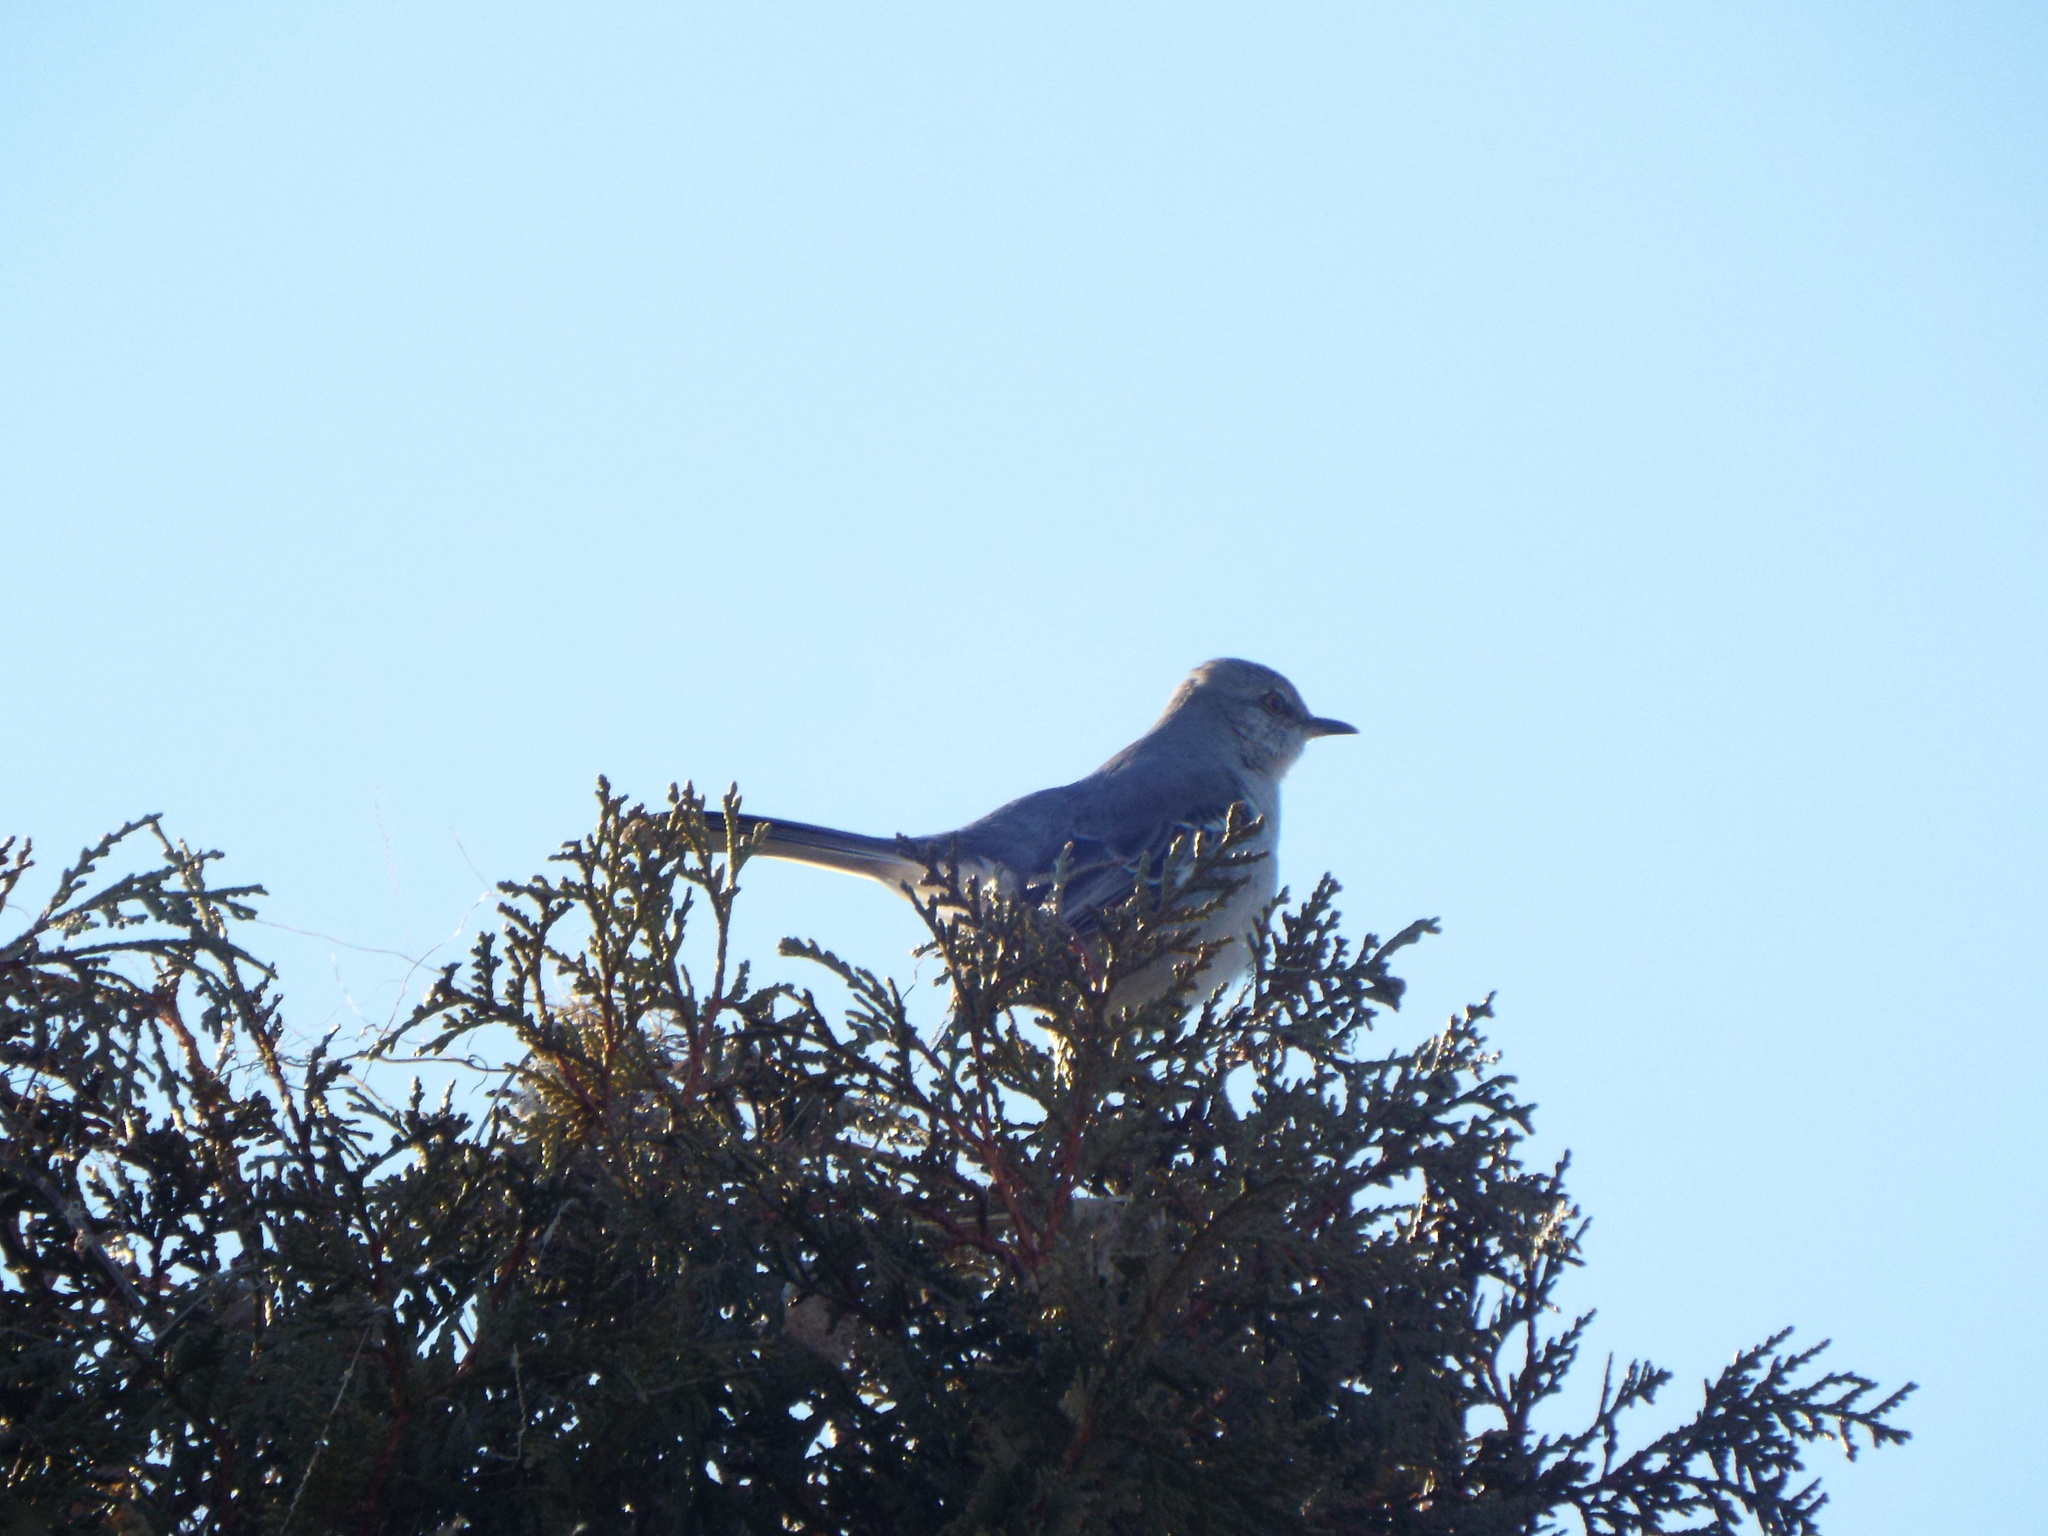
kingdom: Animalia
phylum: Chordata
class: Aves
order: Passeriformes
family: Mimidae
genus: Mimus
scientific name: Mimus polyglottos
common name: Northern mockingbird
